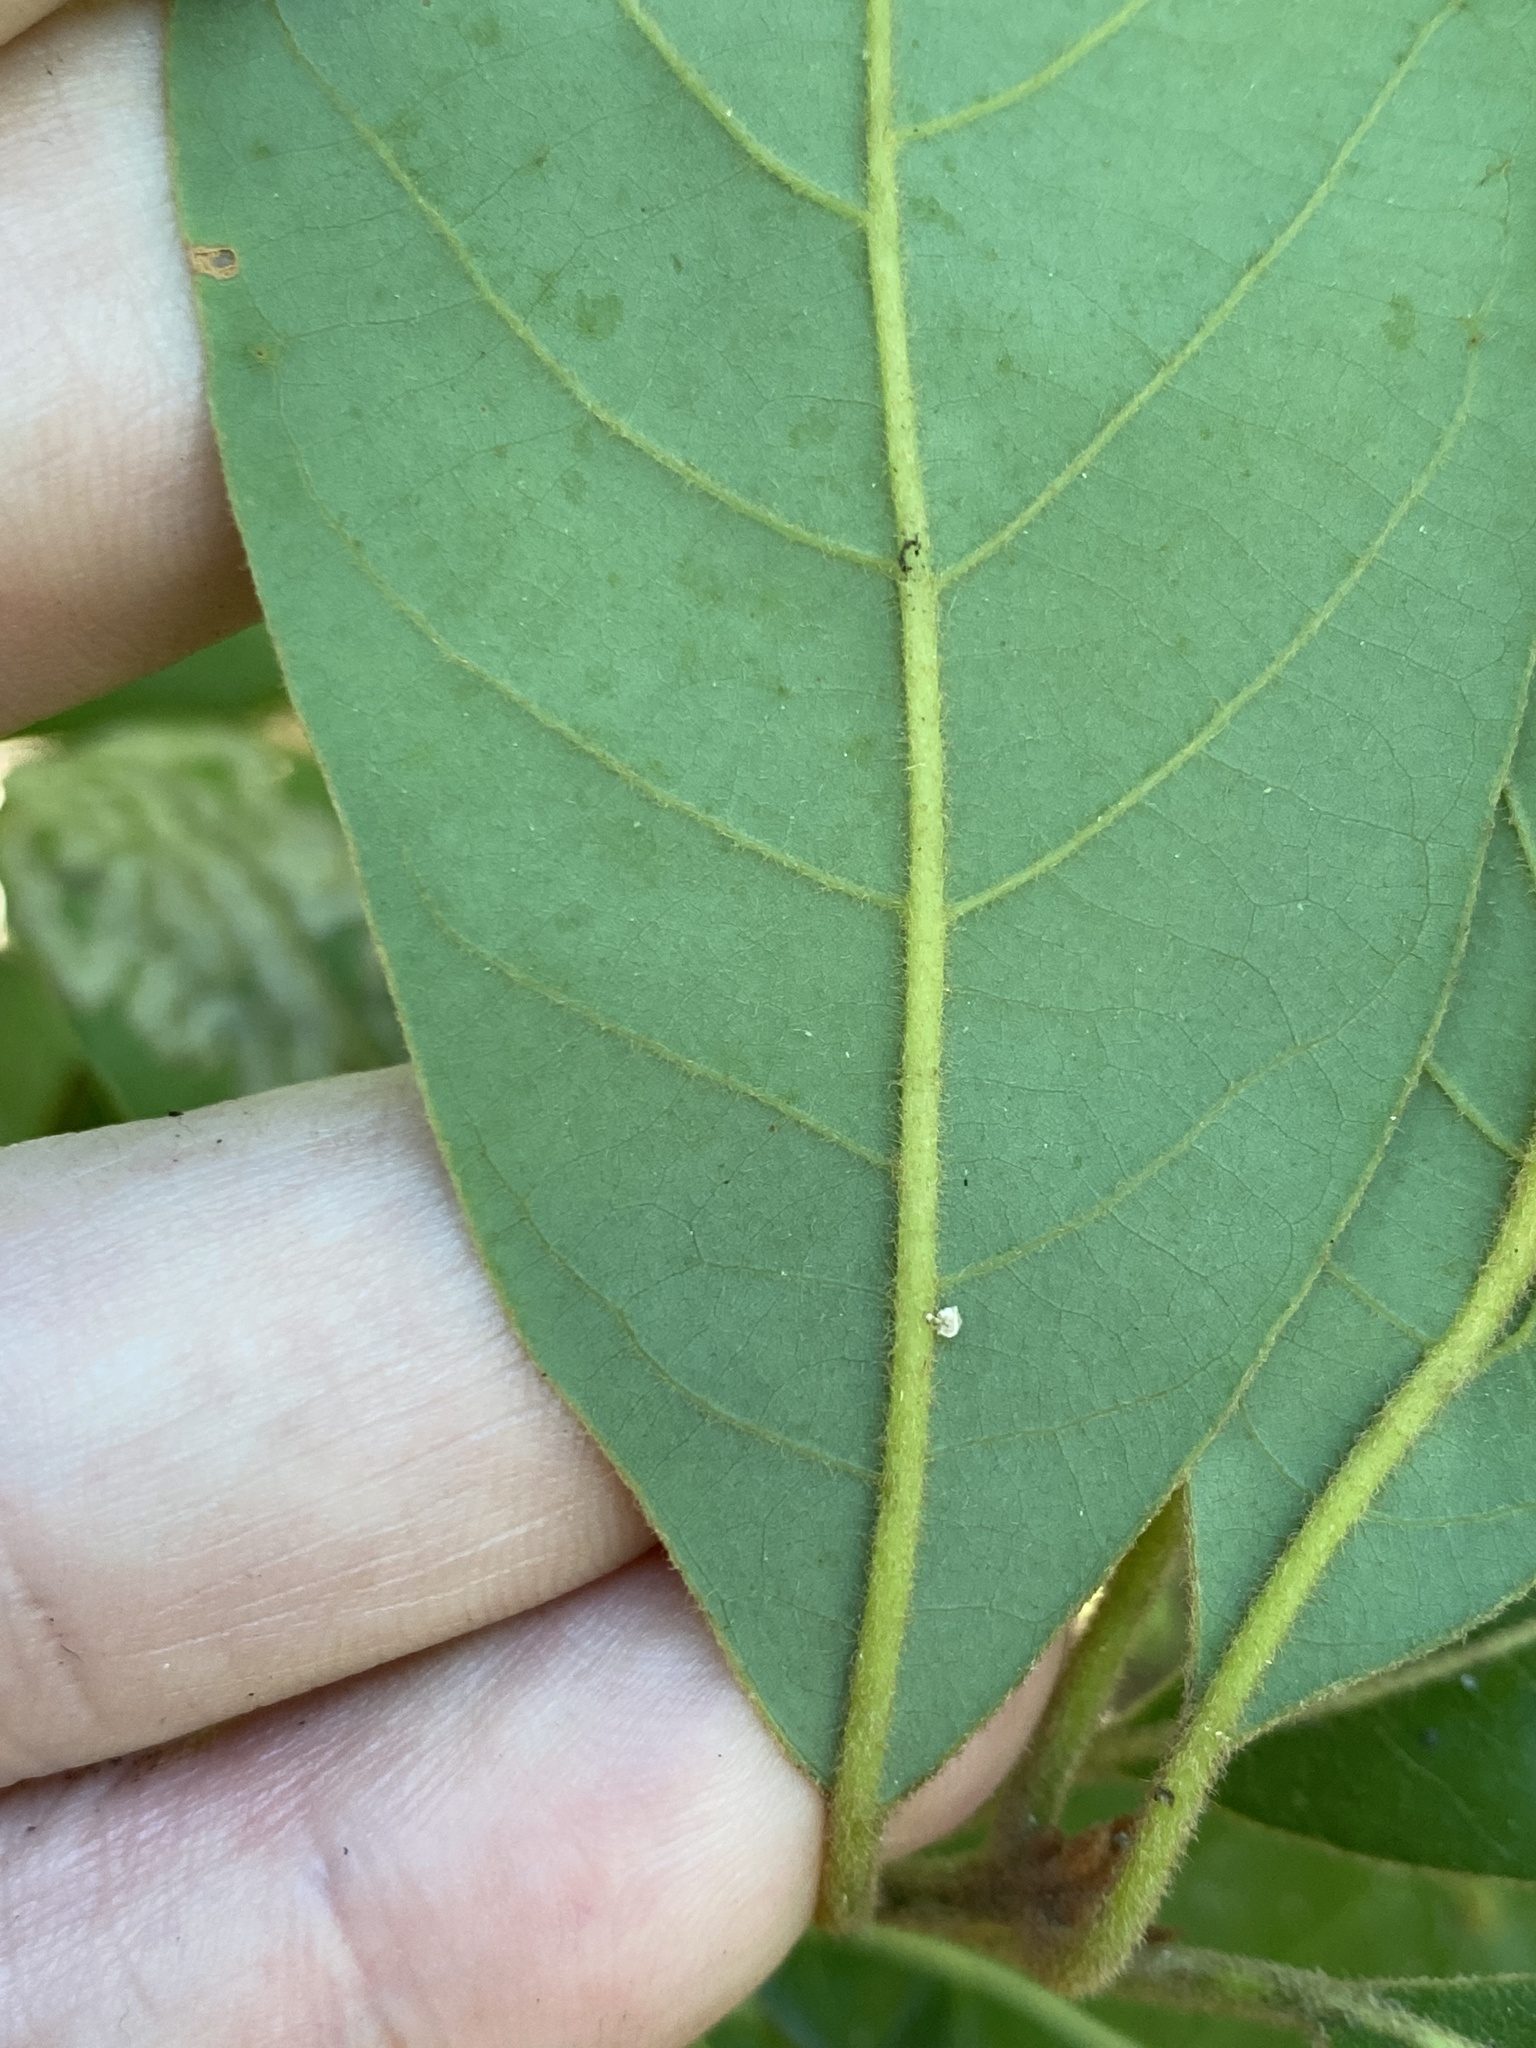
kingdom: Plantae
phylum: Tracheophyta
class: Magnoliopsida
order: Laurales
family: Lauraceae
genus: Persea
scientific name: Persea palustris
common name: Swampbay
